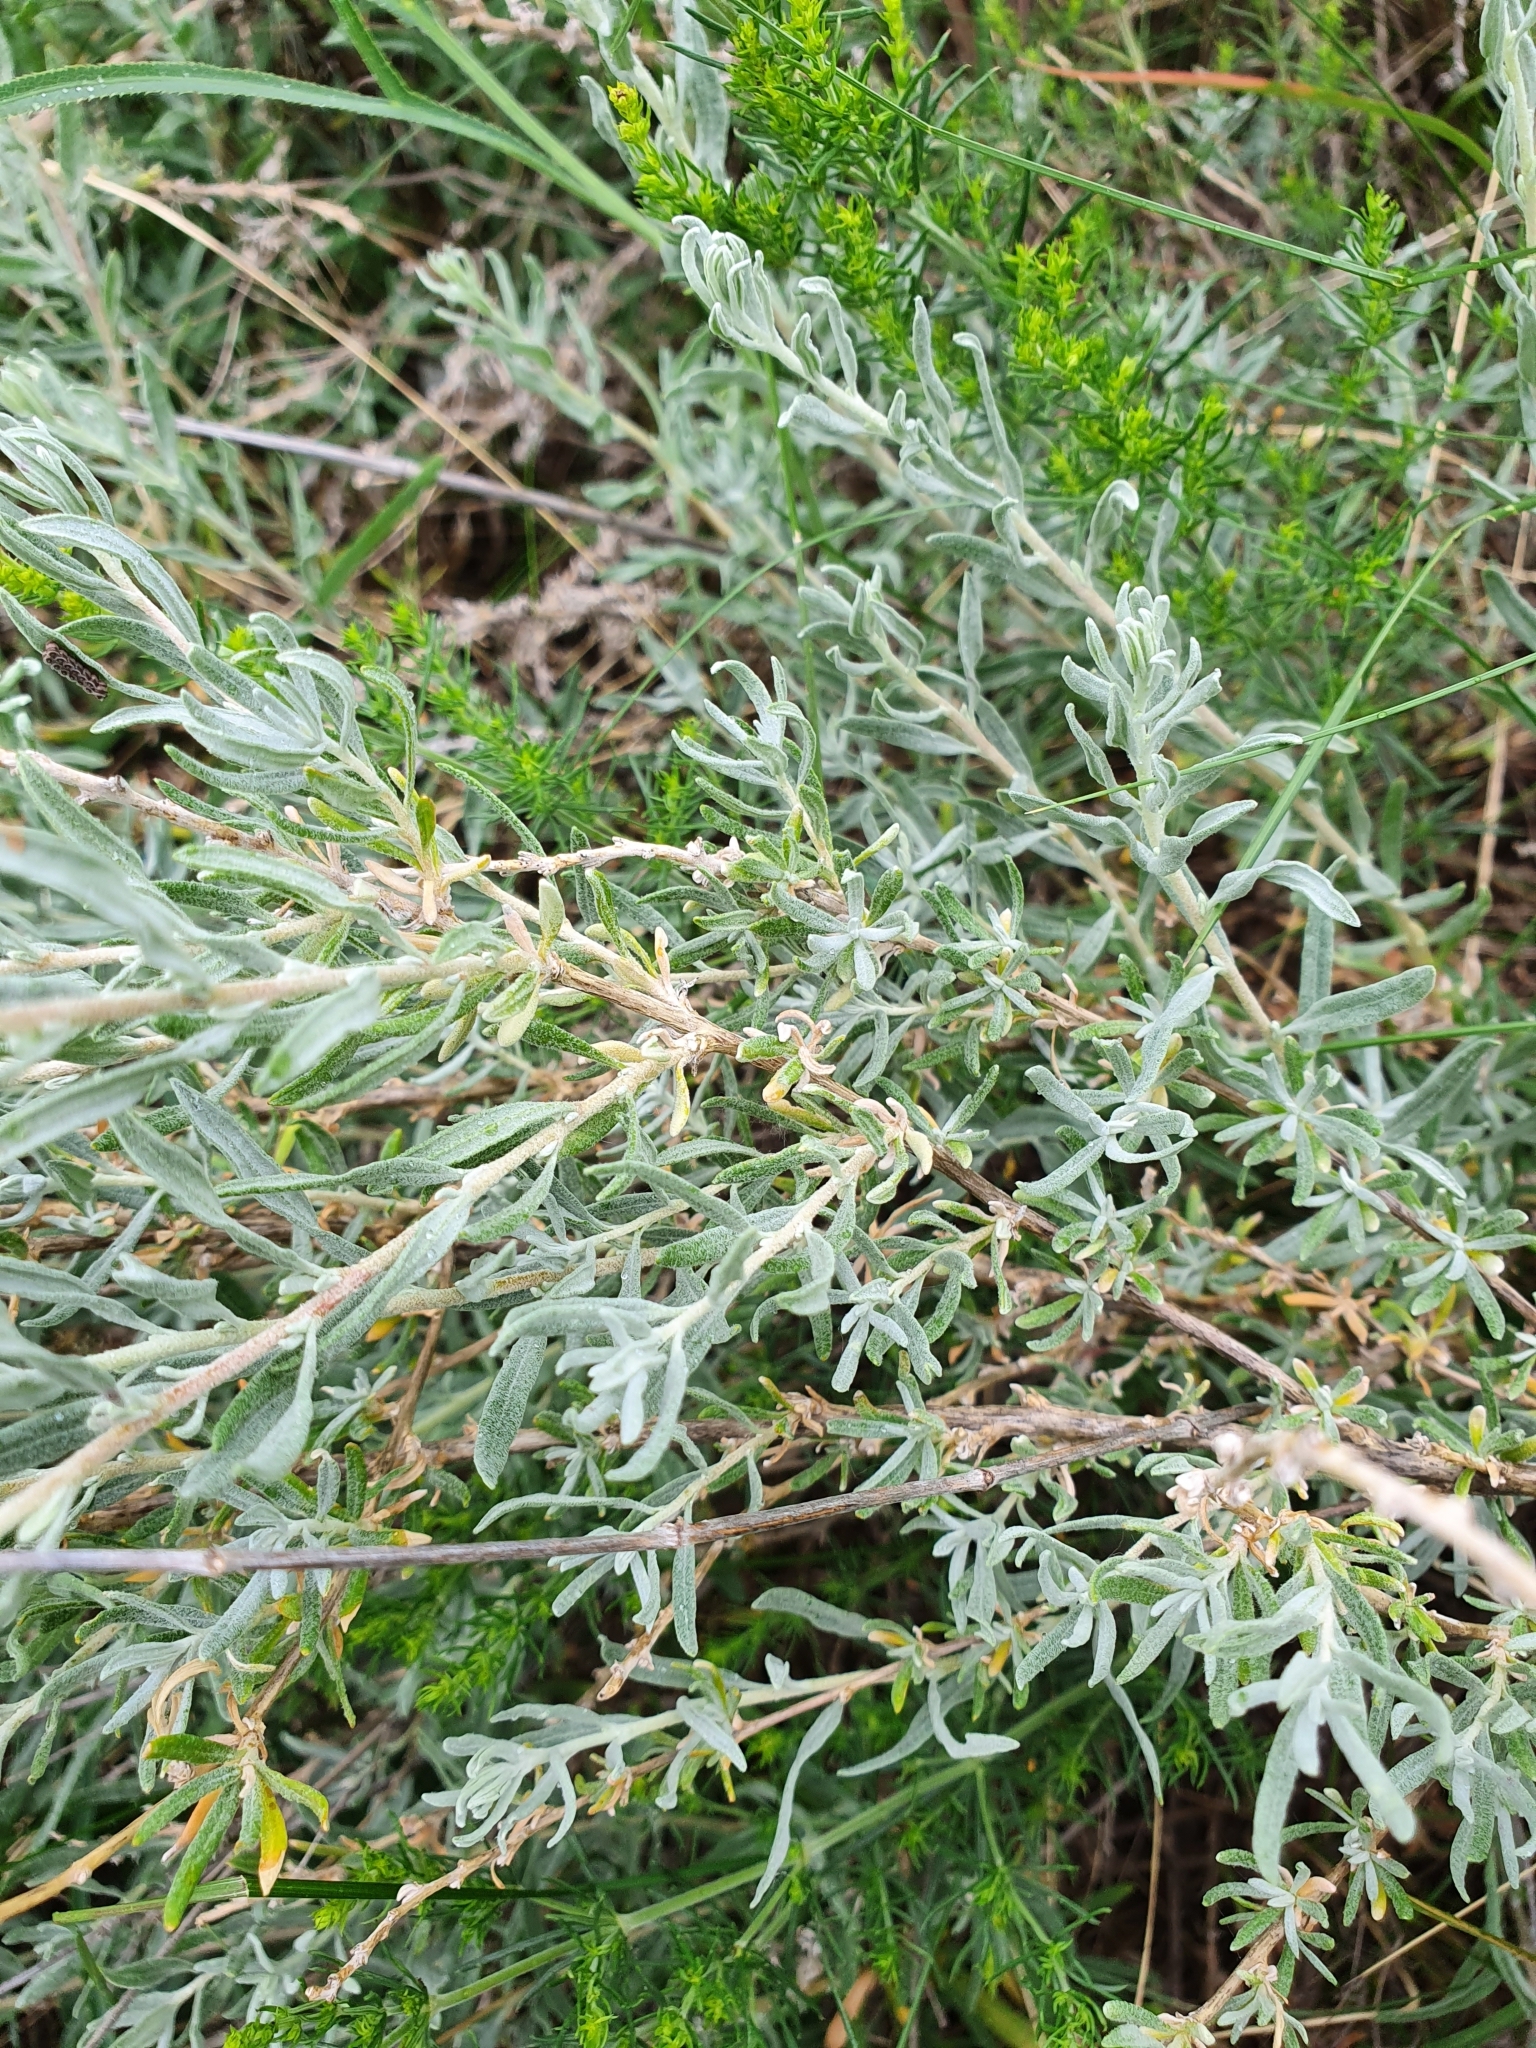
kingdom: Plantae
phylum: Tracheophyta
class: Magnoliopsida
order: Caryophyllales
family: Amaranthaceae
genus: Krascheninnikovia
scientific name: Krascheninnikovia ceratoides
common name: Pamirian winterfat
